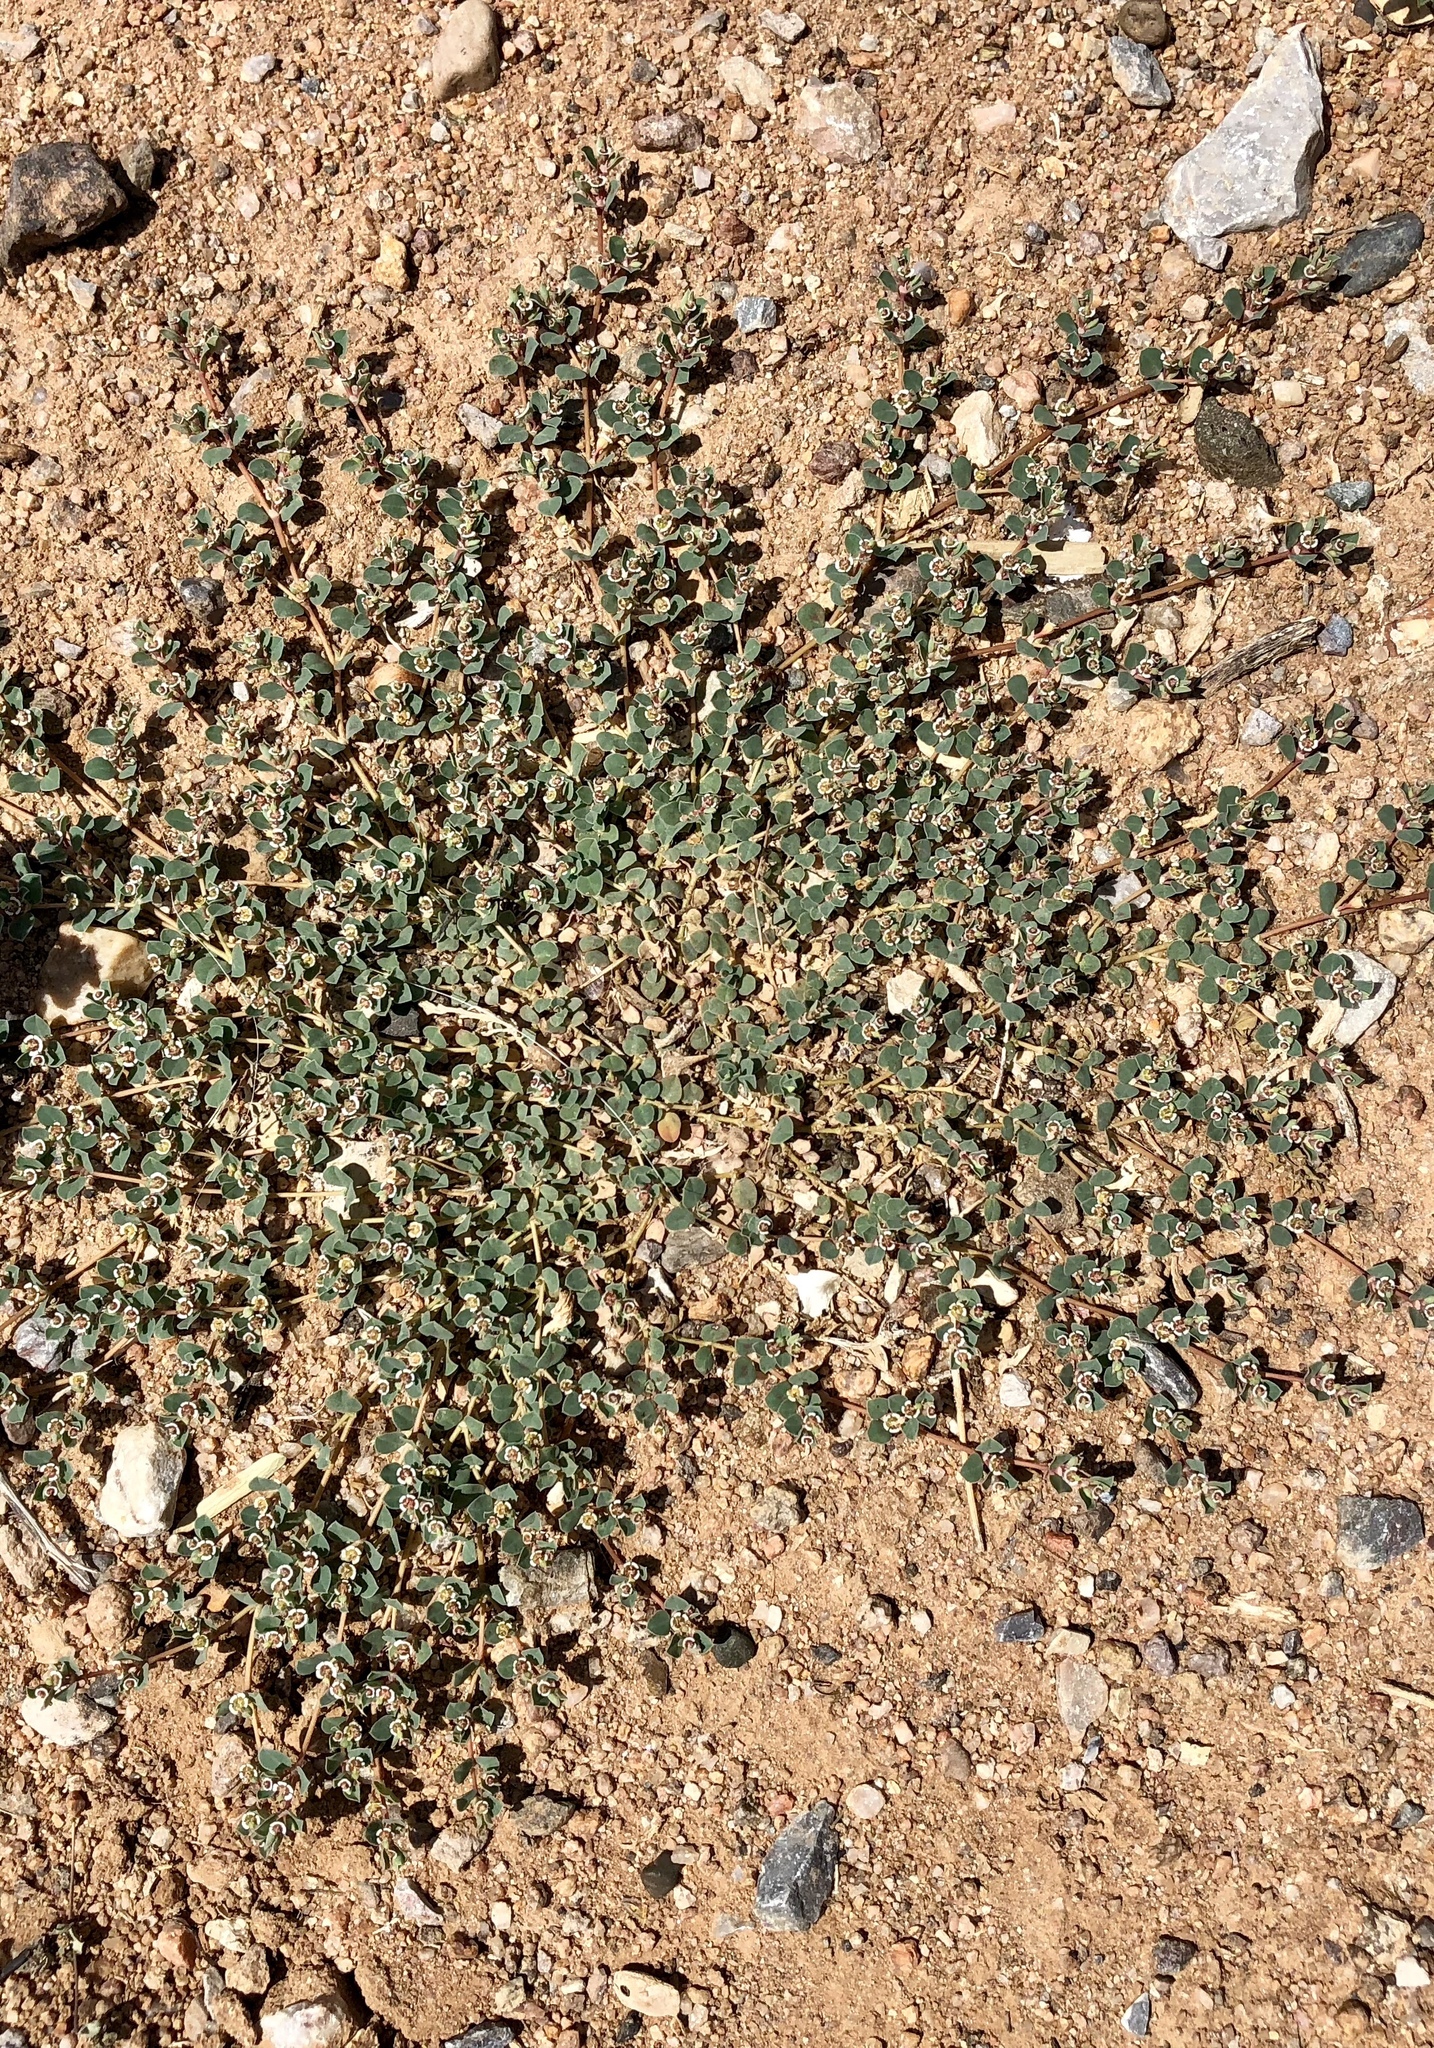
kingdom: Plantae
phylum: Tracheophyta
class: Magnoliopsida
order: Malpighiales
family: Euphorbiaceae
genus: Euphorbia
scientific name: Euphorbia albomarginata
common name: Whitemargin sandmat
